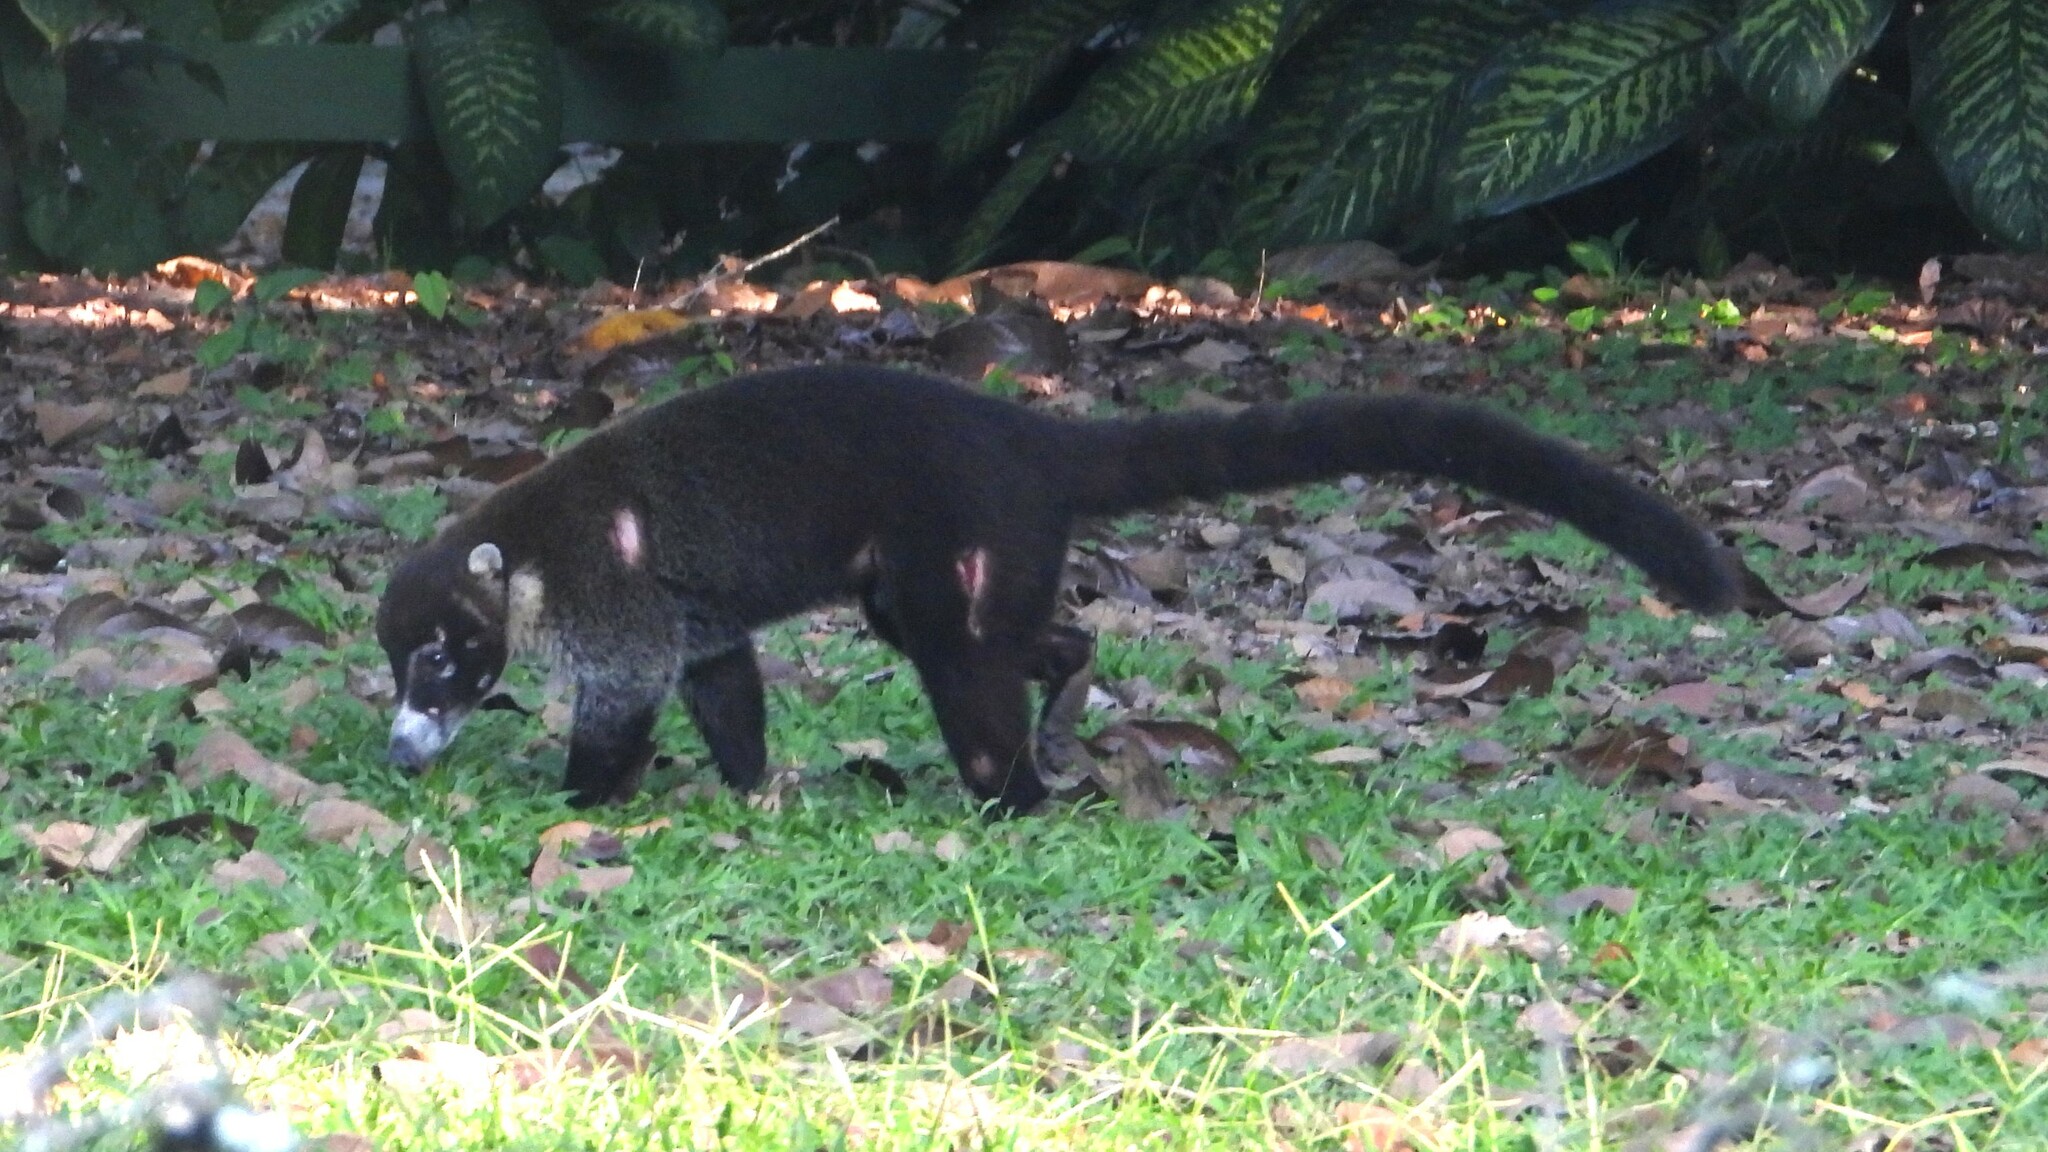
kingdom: Animalia
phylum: Chordata
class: Mammalia
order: Carnivora
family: Procyonidae
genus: Nasua
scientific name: Nasua narica
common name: White-nosed coati
